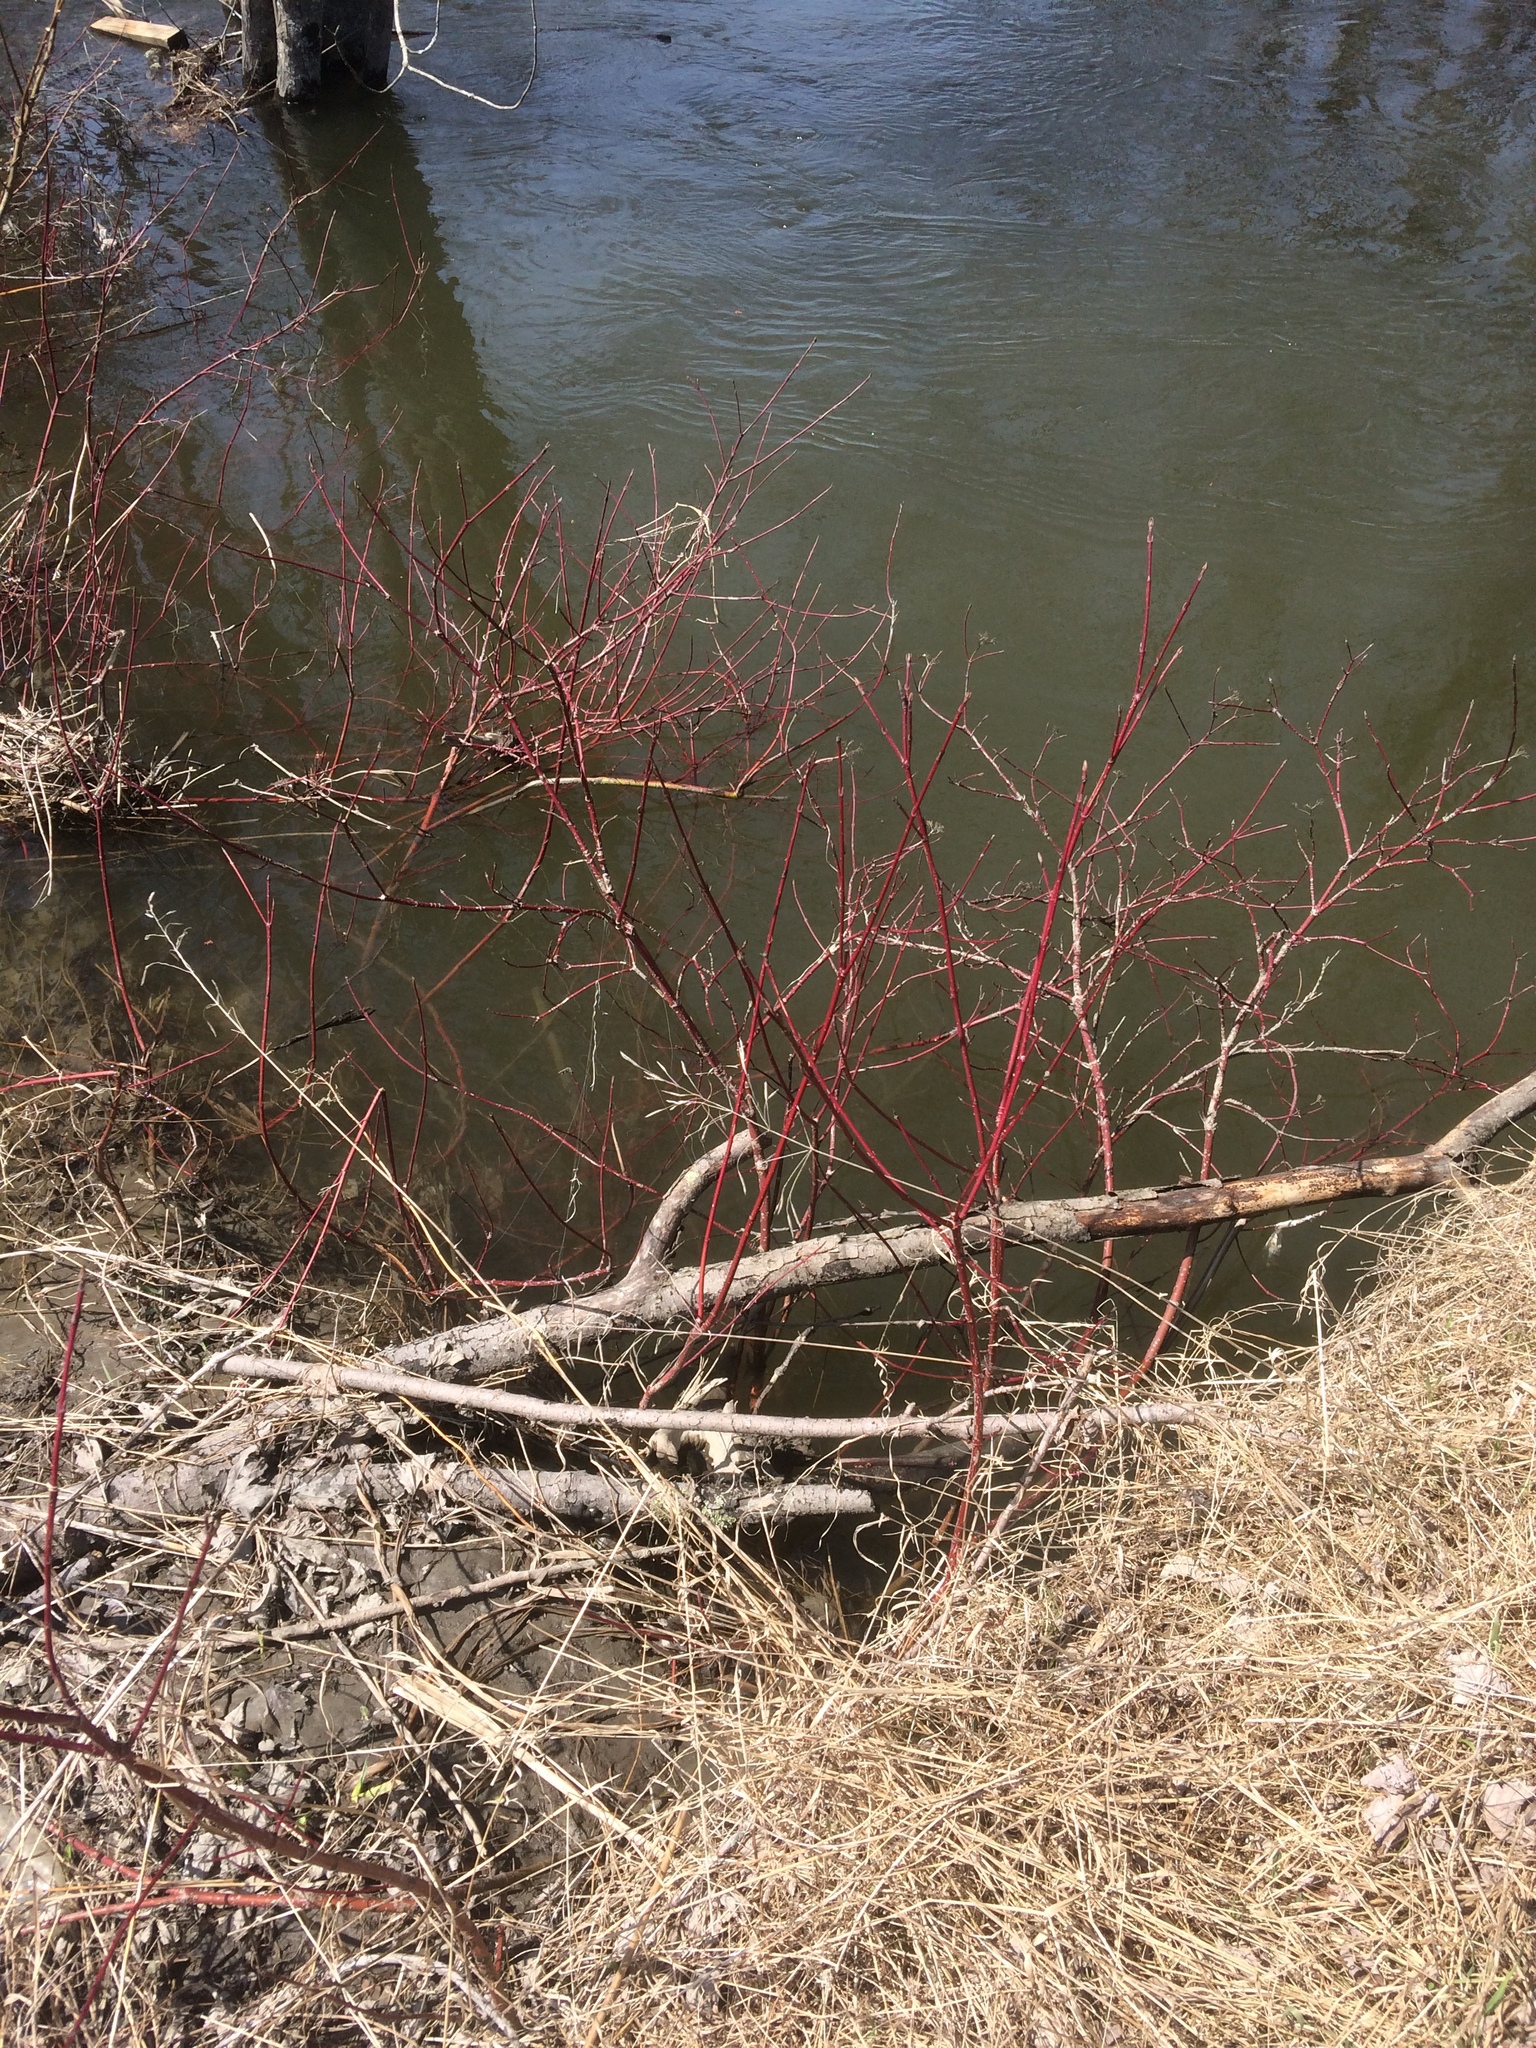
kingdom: Plantae
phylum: Tracheophyta
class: Magnoliopsida
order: Cornales
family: Cornaceae
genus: Cornus
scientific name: Cornus sericea
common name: Red-osier dogwood
